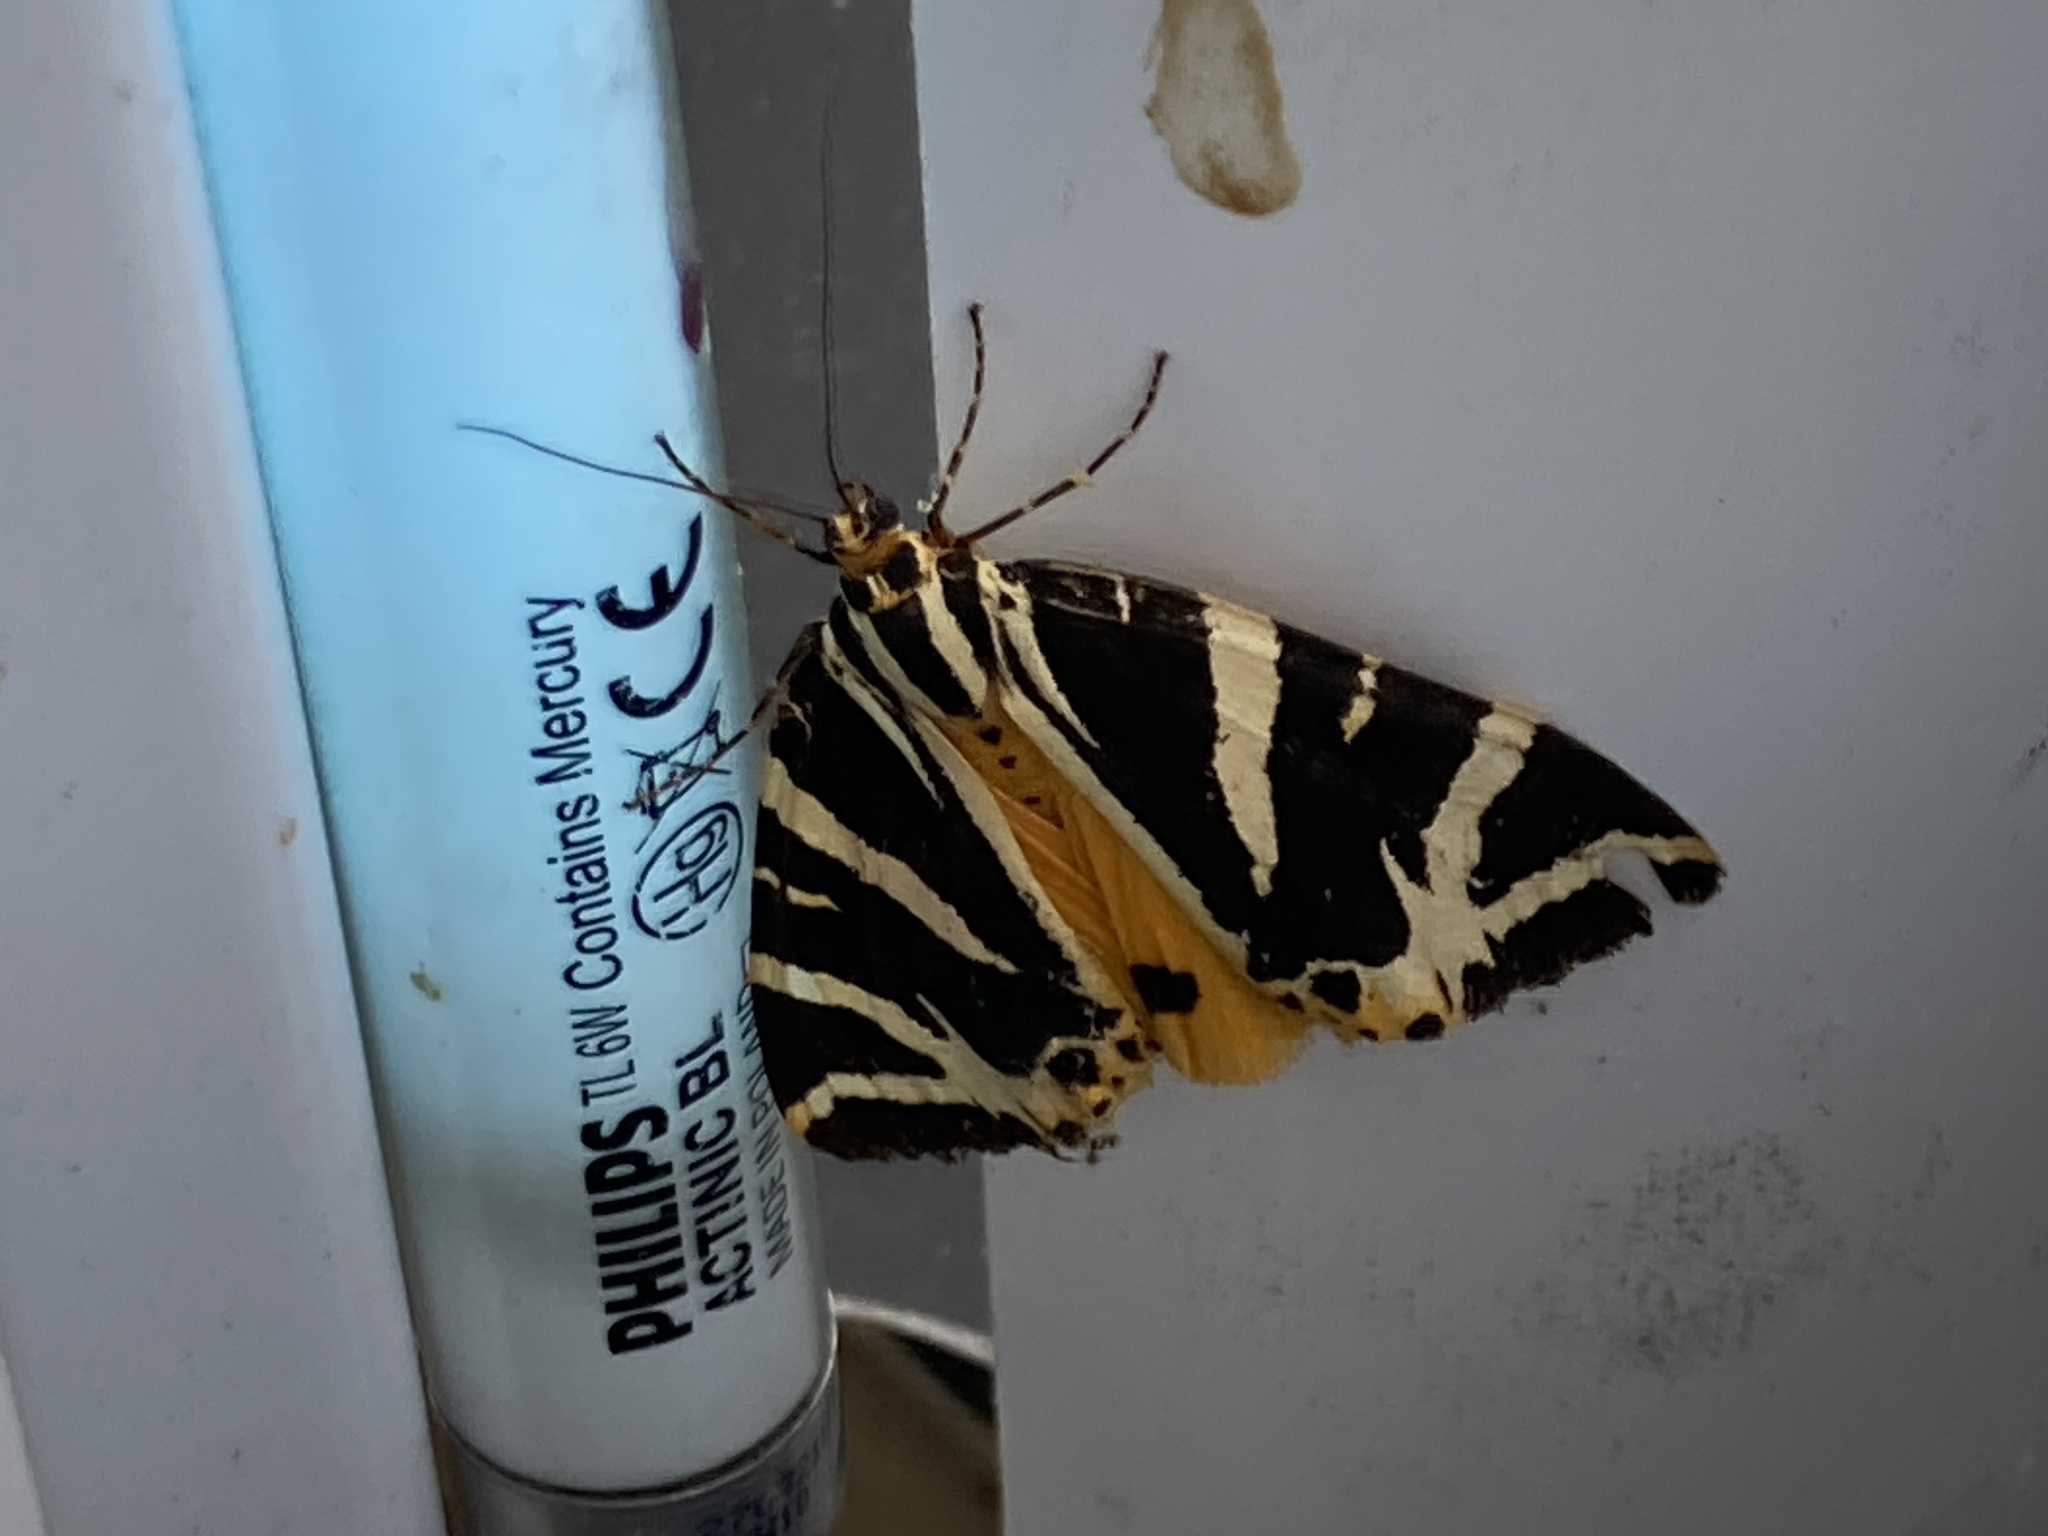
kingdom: Animalia
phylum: Arthropoda
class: Insecta
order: Lepidoptera
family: Erebidae
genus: Euplagia
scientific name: Euplagia quadripunctaria
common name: Jersey tiger
